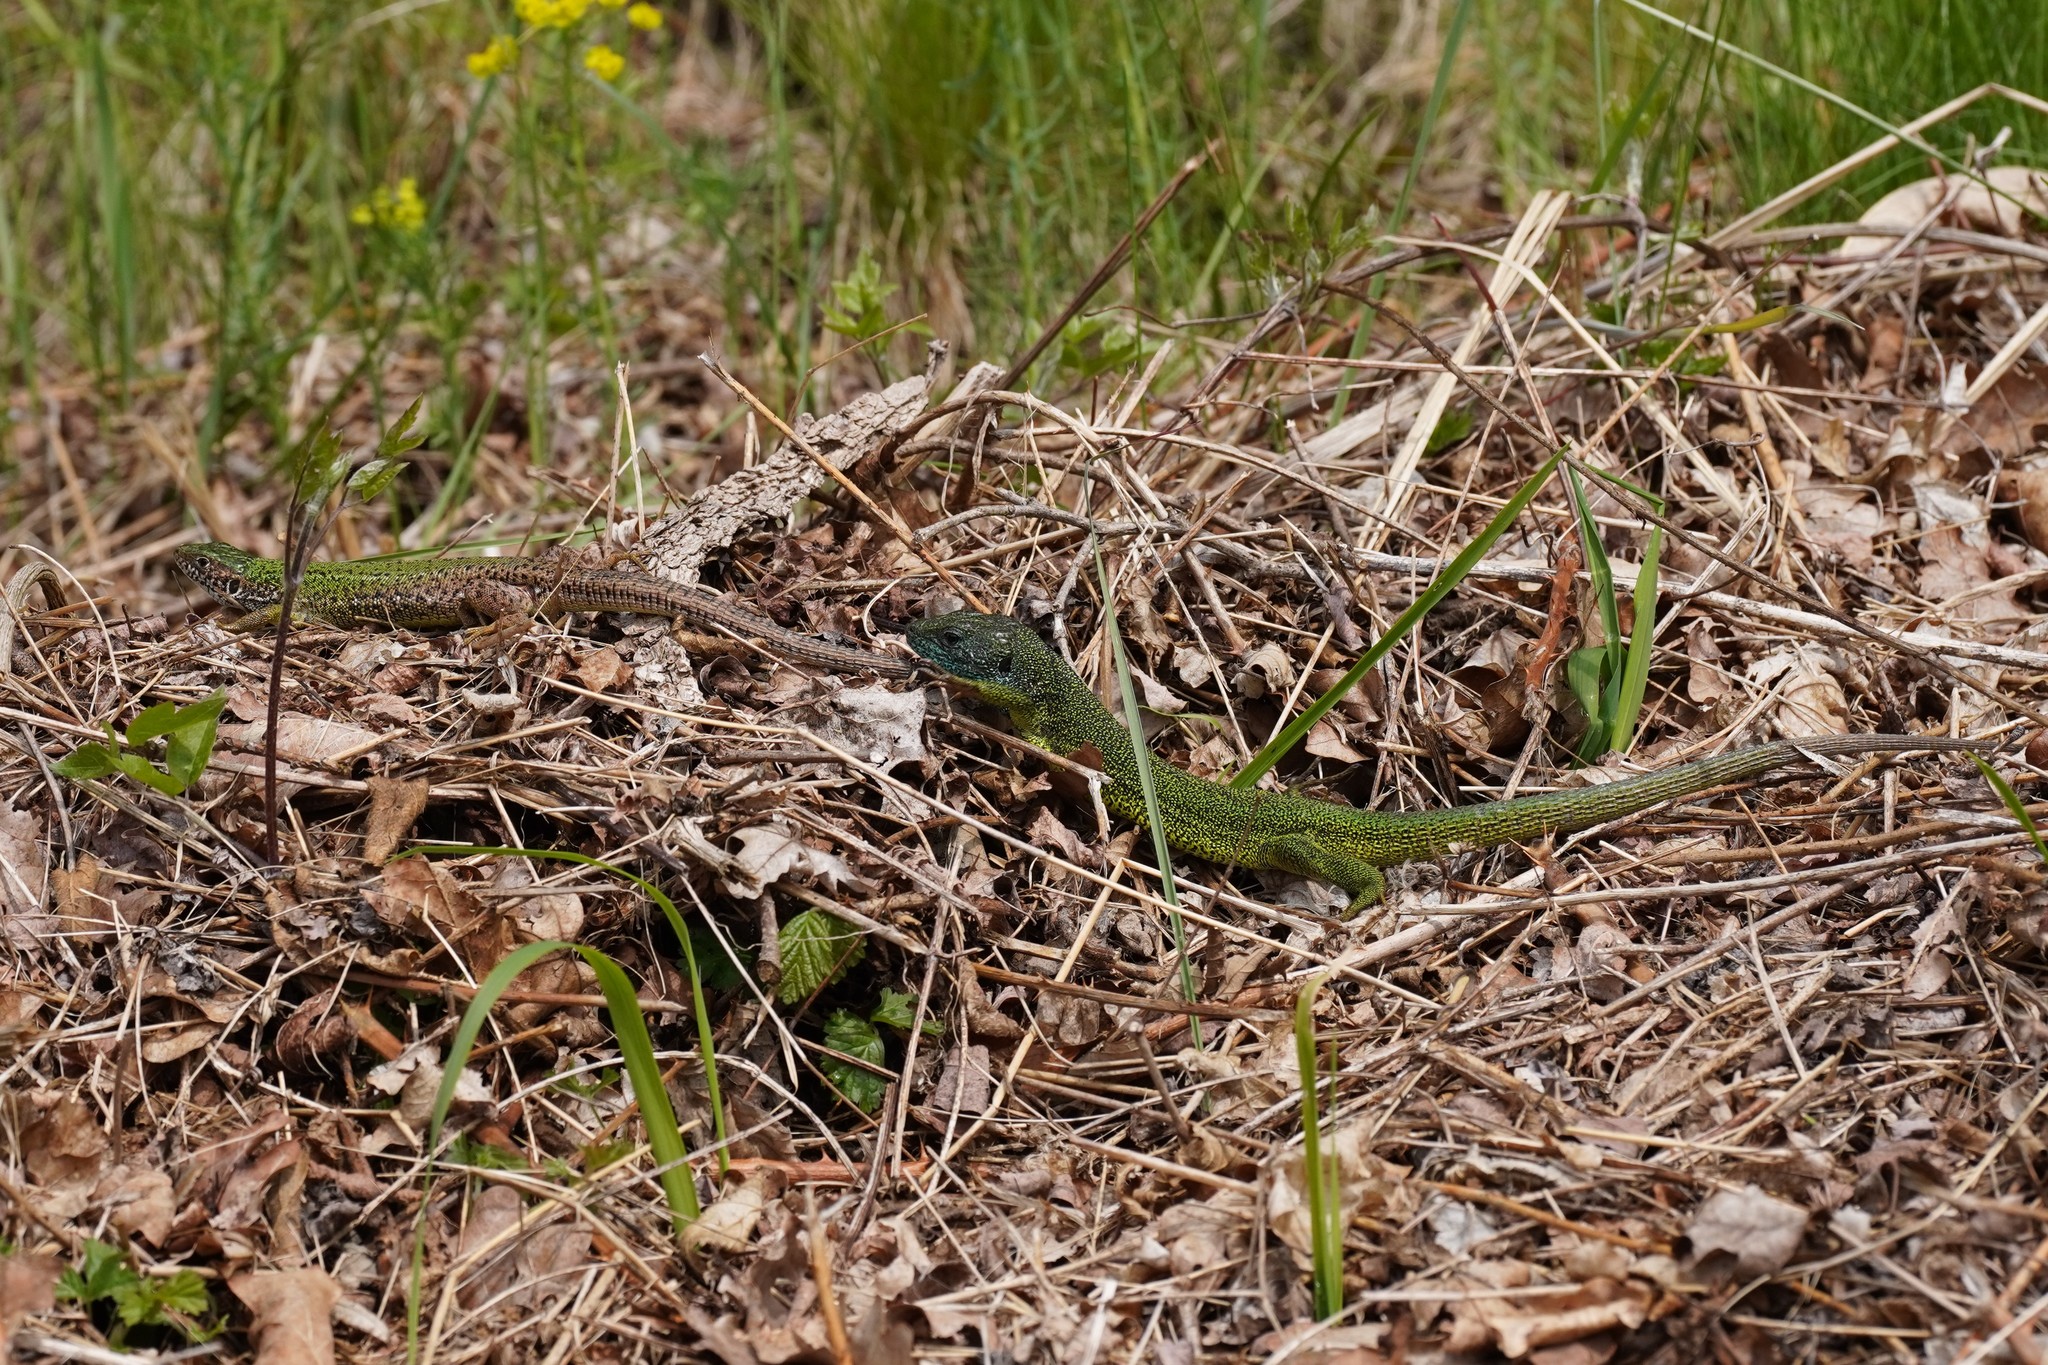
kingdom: Animalia
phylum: Chordata
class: Squamata
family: Lacertidae
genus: Lacerta
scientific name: Lacerta viridis
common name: European green lizard
